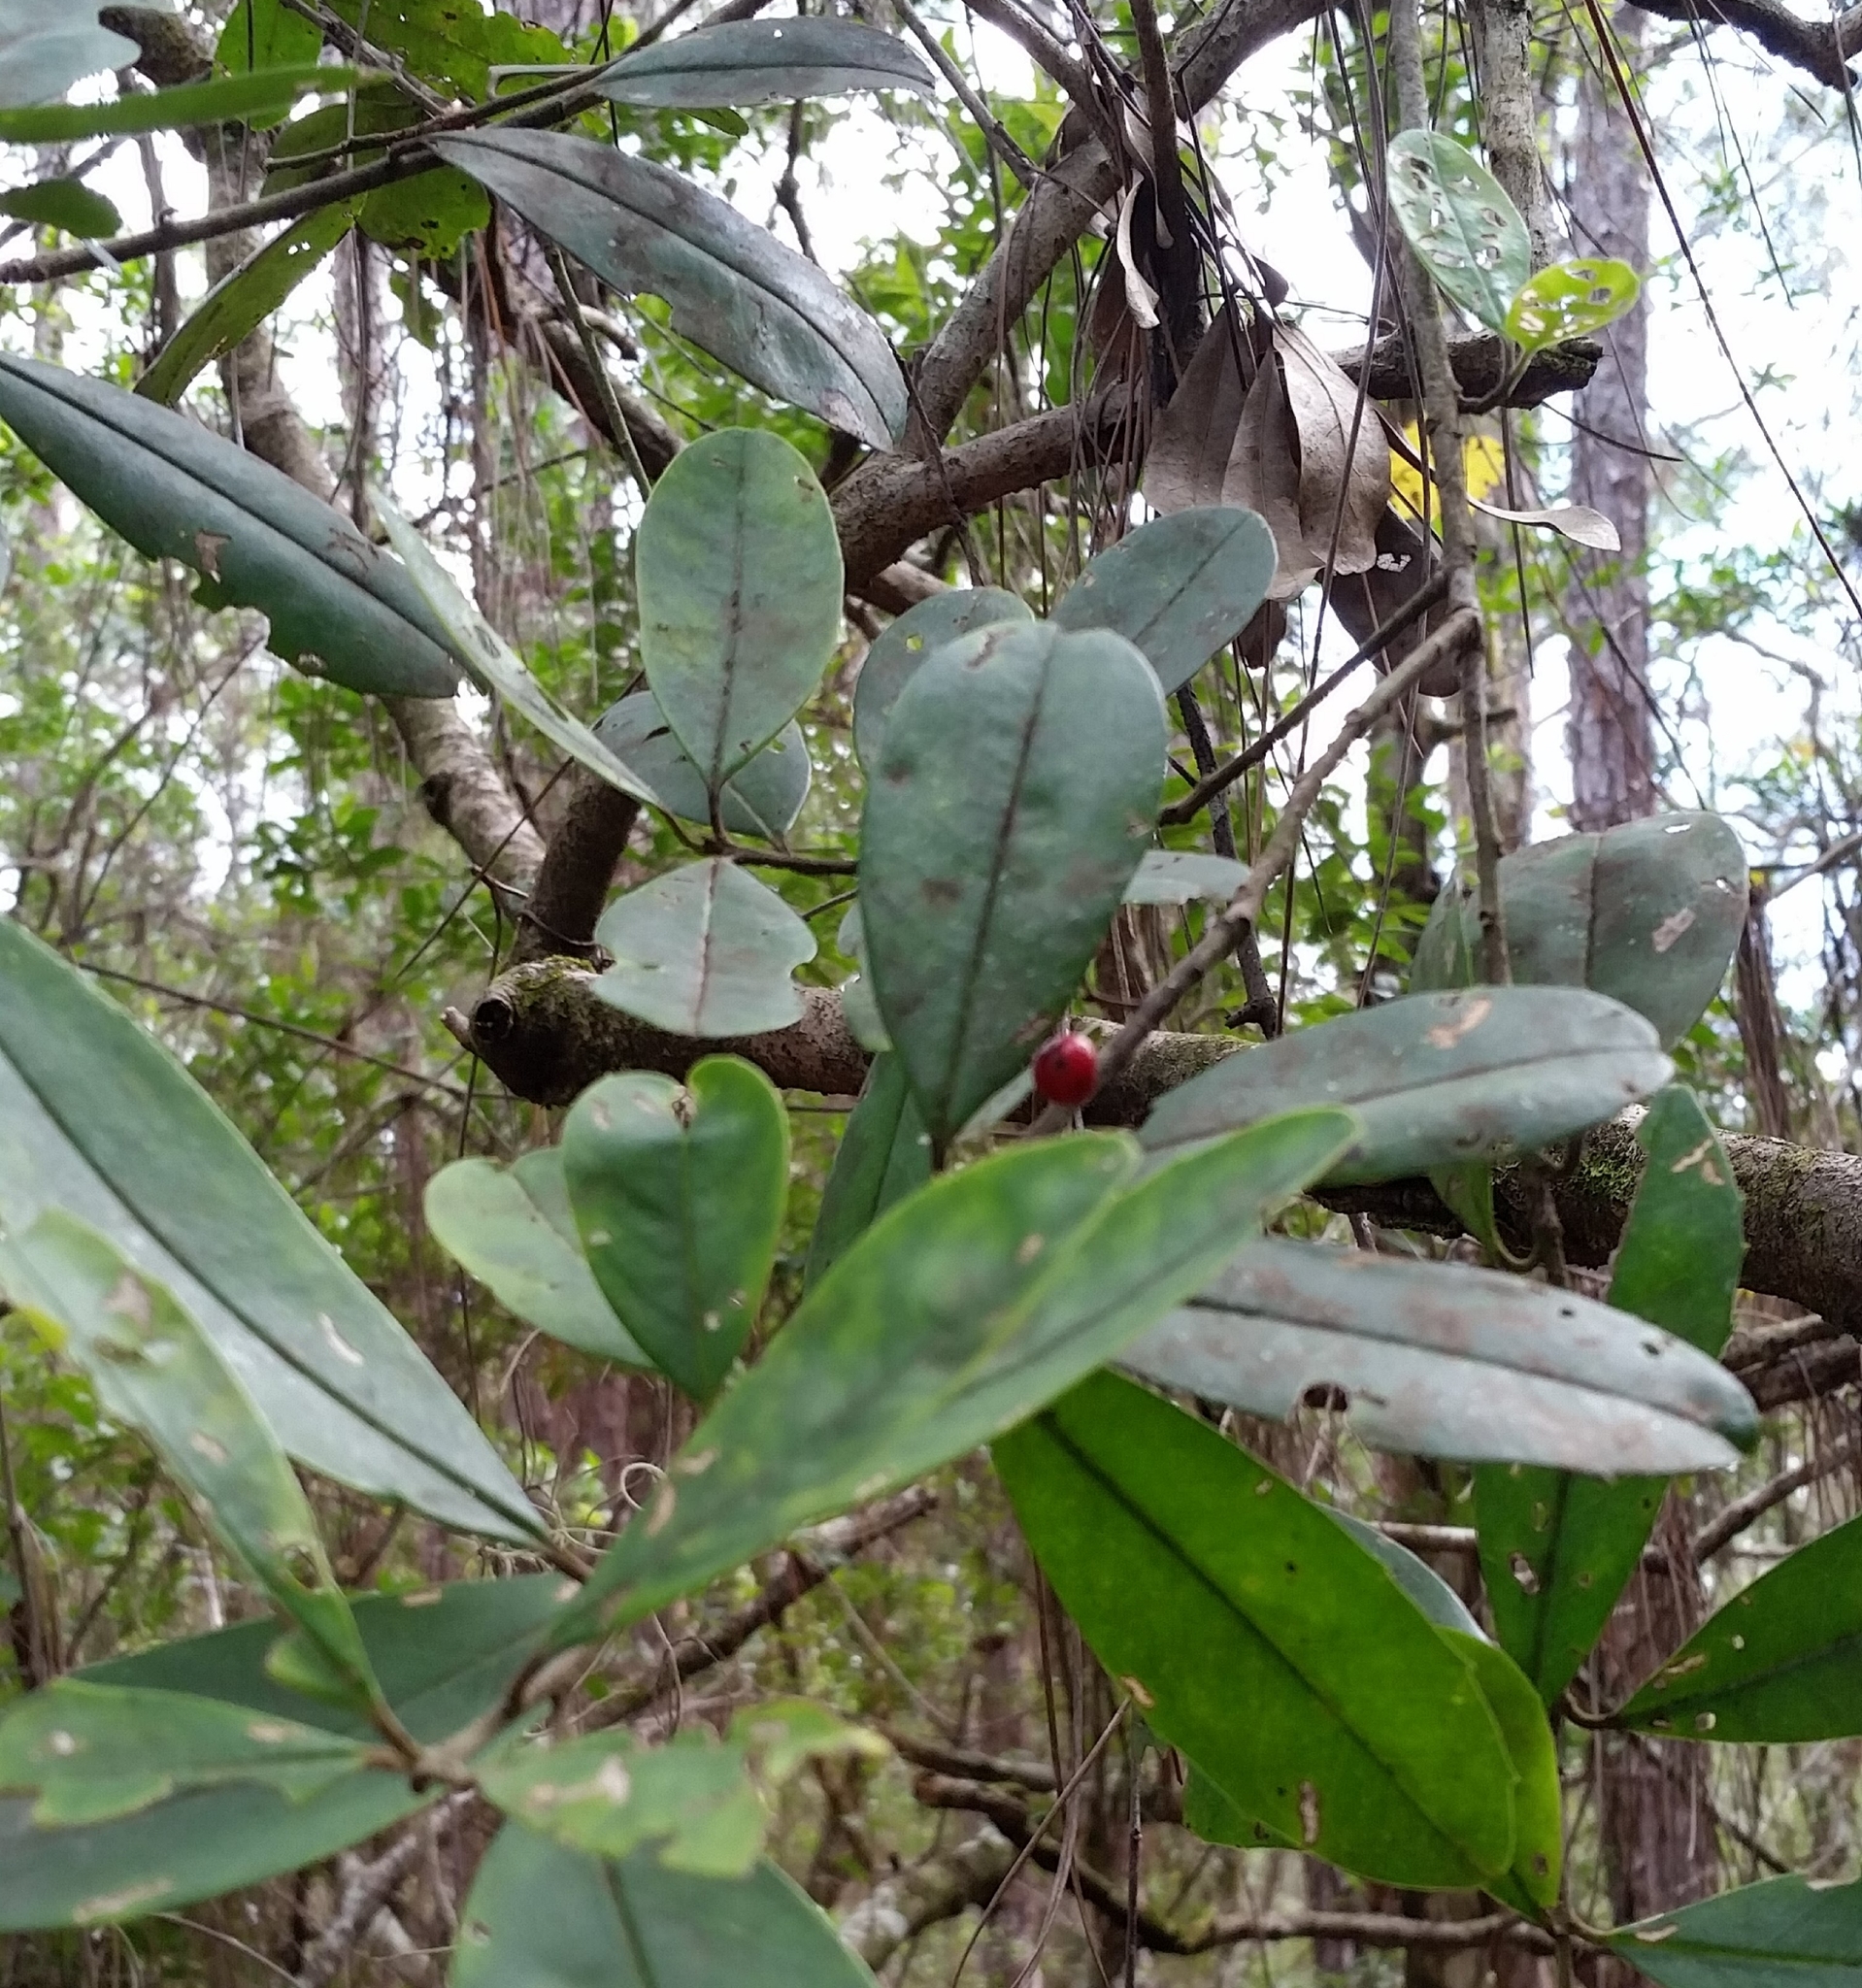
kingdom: Plantae
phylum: Tracheophyta
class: Magnoliopsida
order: Aquifoliales
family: Aquifoliaceae
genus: Ilex
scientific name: Ilex cassine
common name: Dahoon
